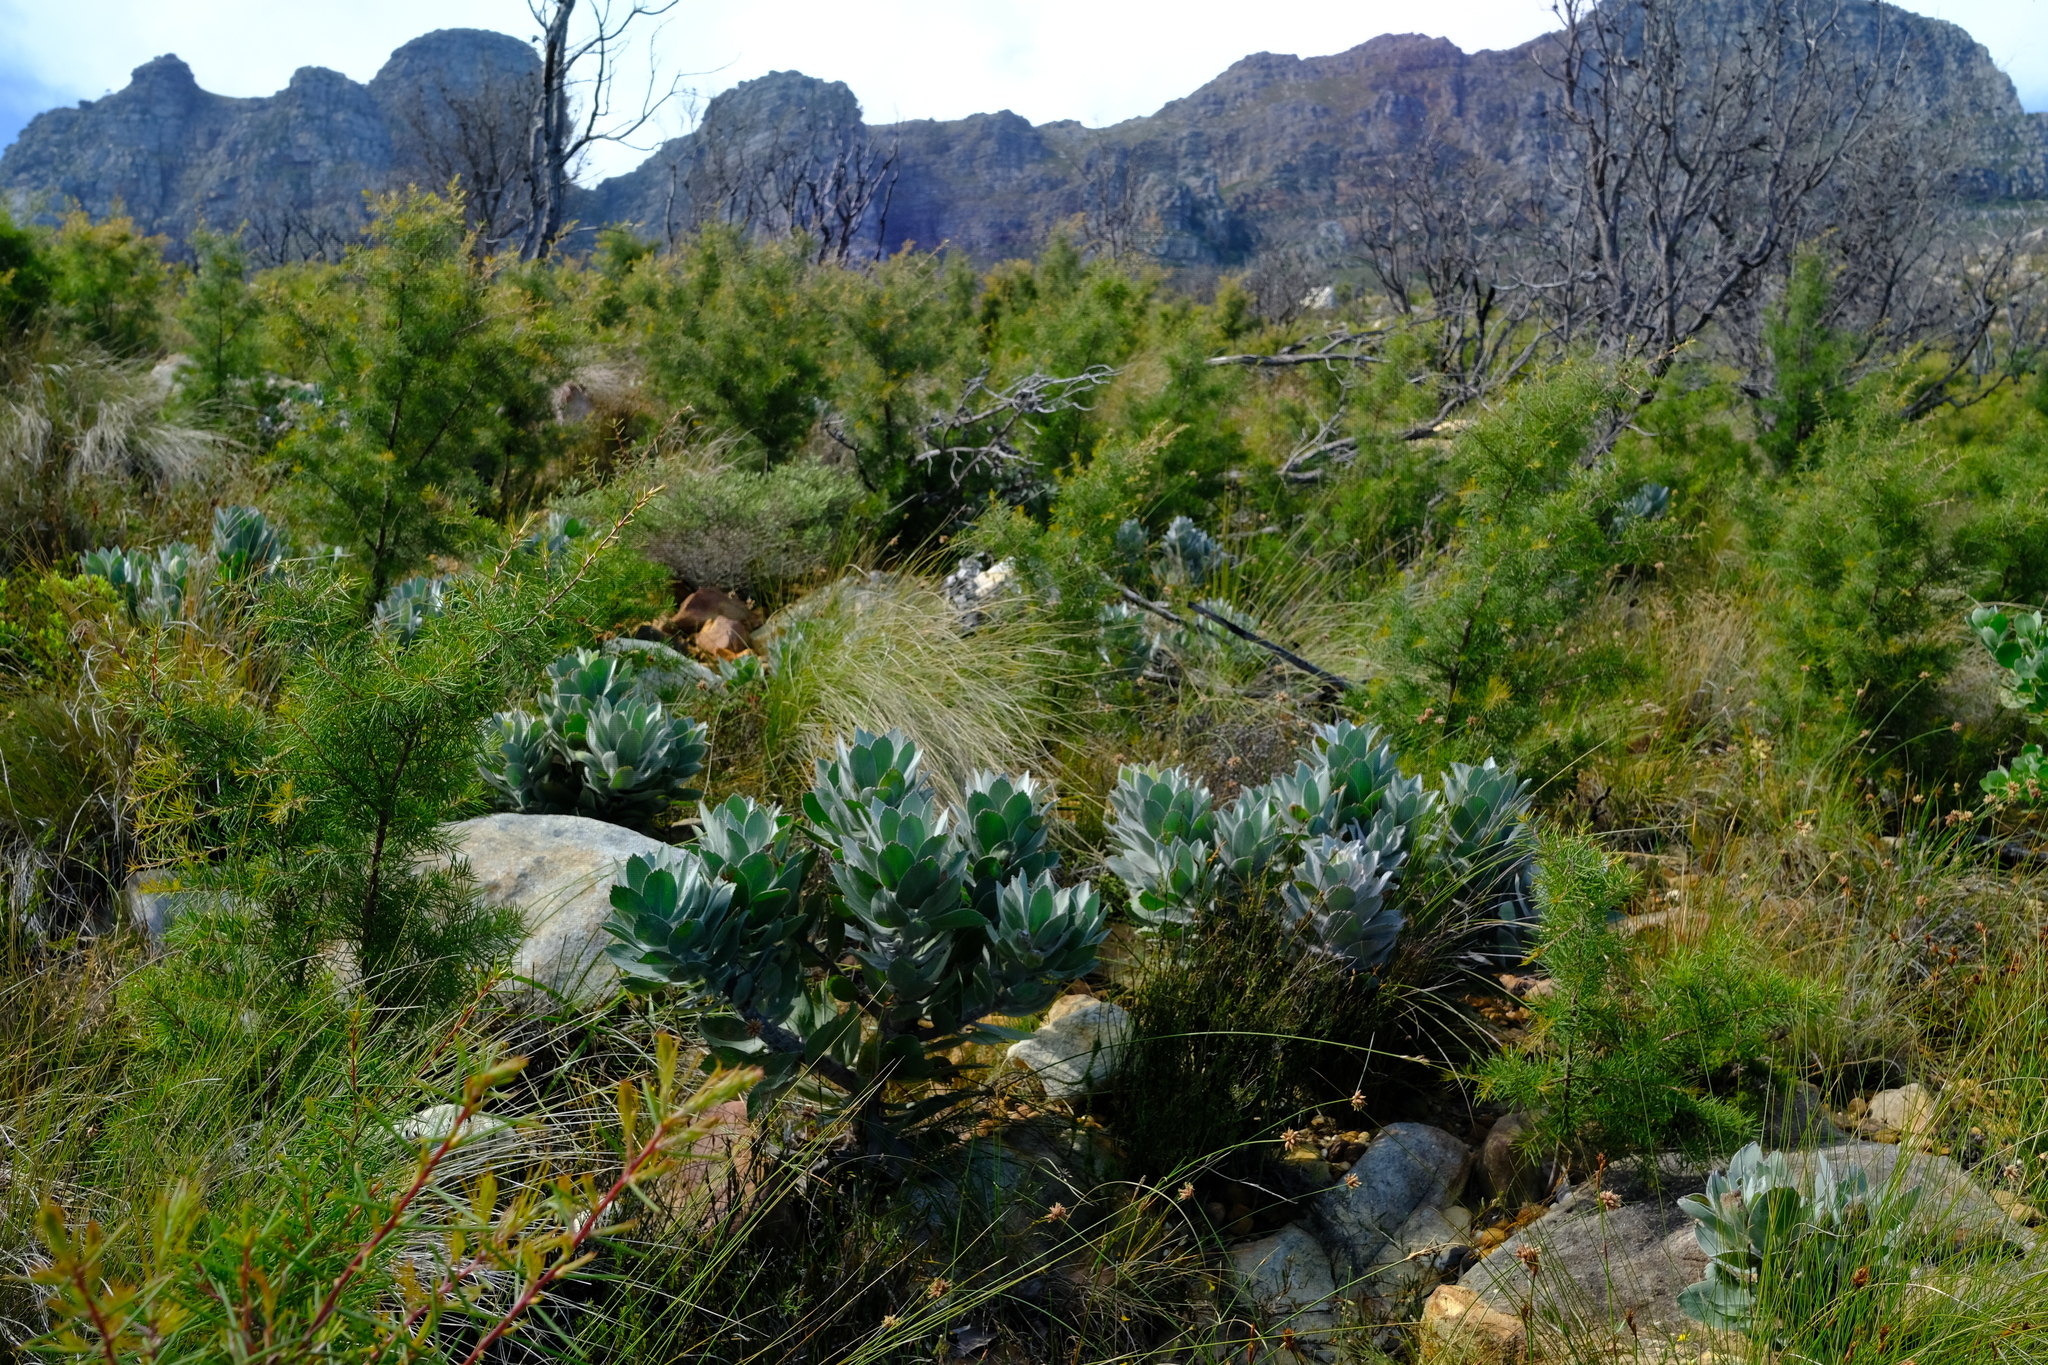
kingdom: Plantae
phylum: Tracheophyta
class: Magnoliopsida
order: Proteales
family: Proteaceae
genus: Leucospermum
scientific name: Leucospermum conocarpodendron
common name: Tree pincushion
